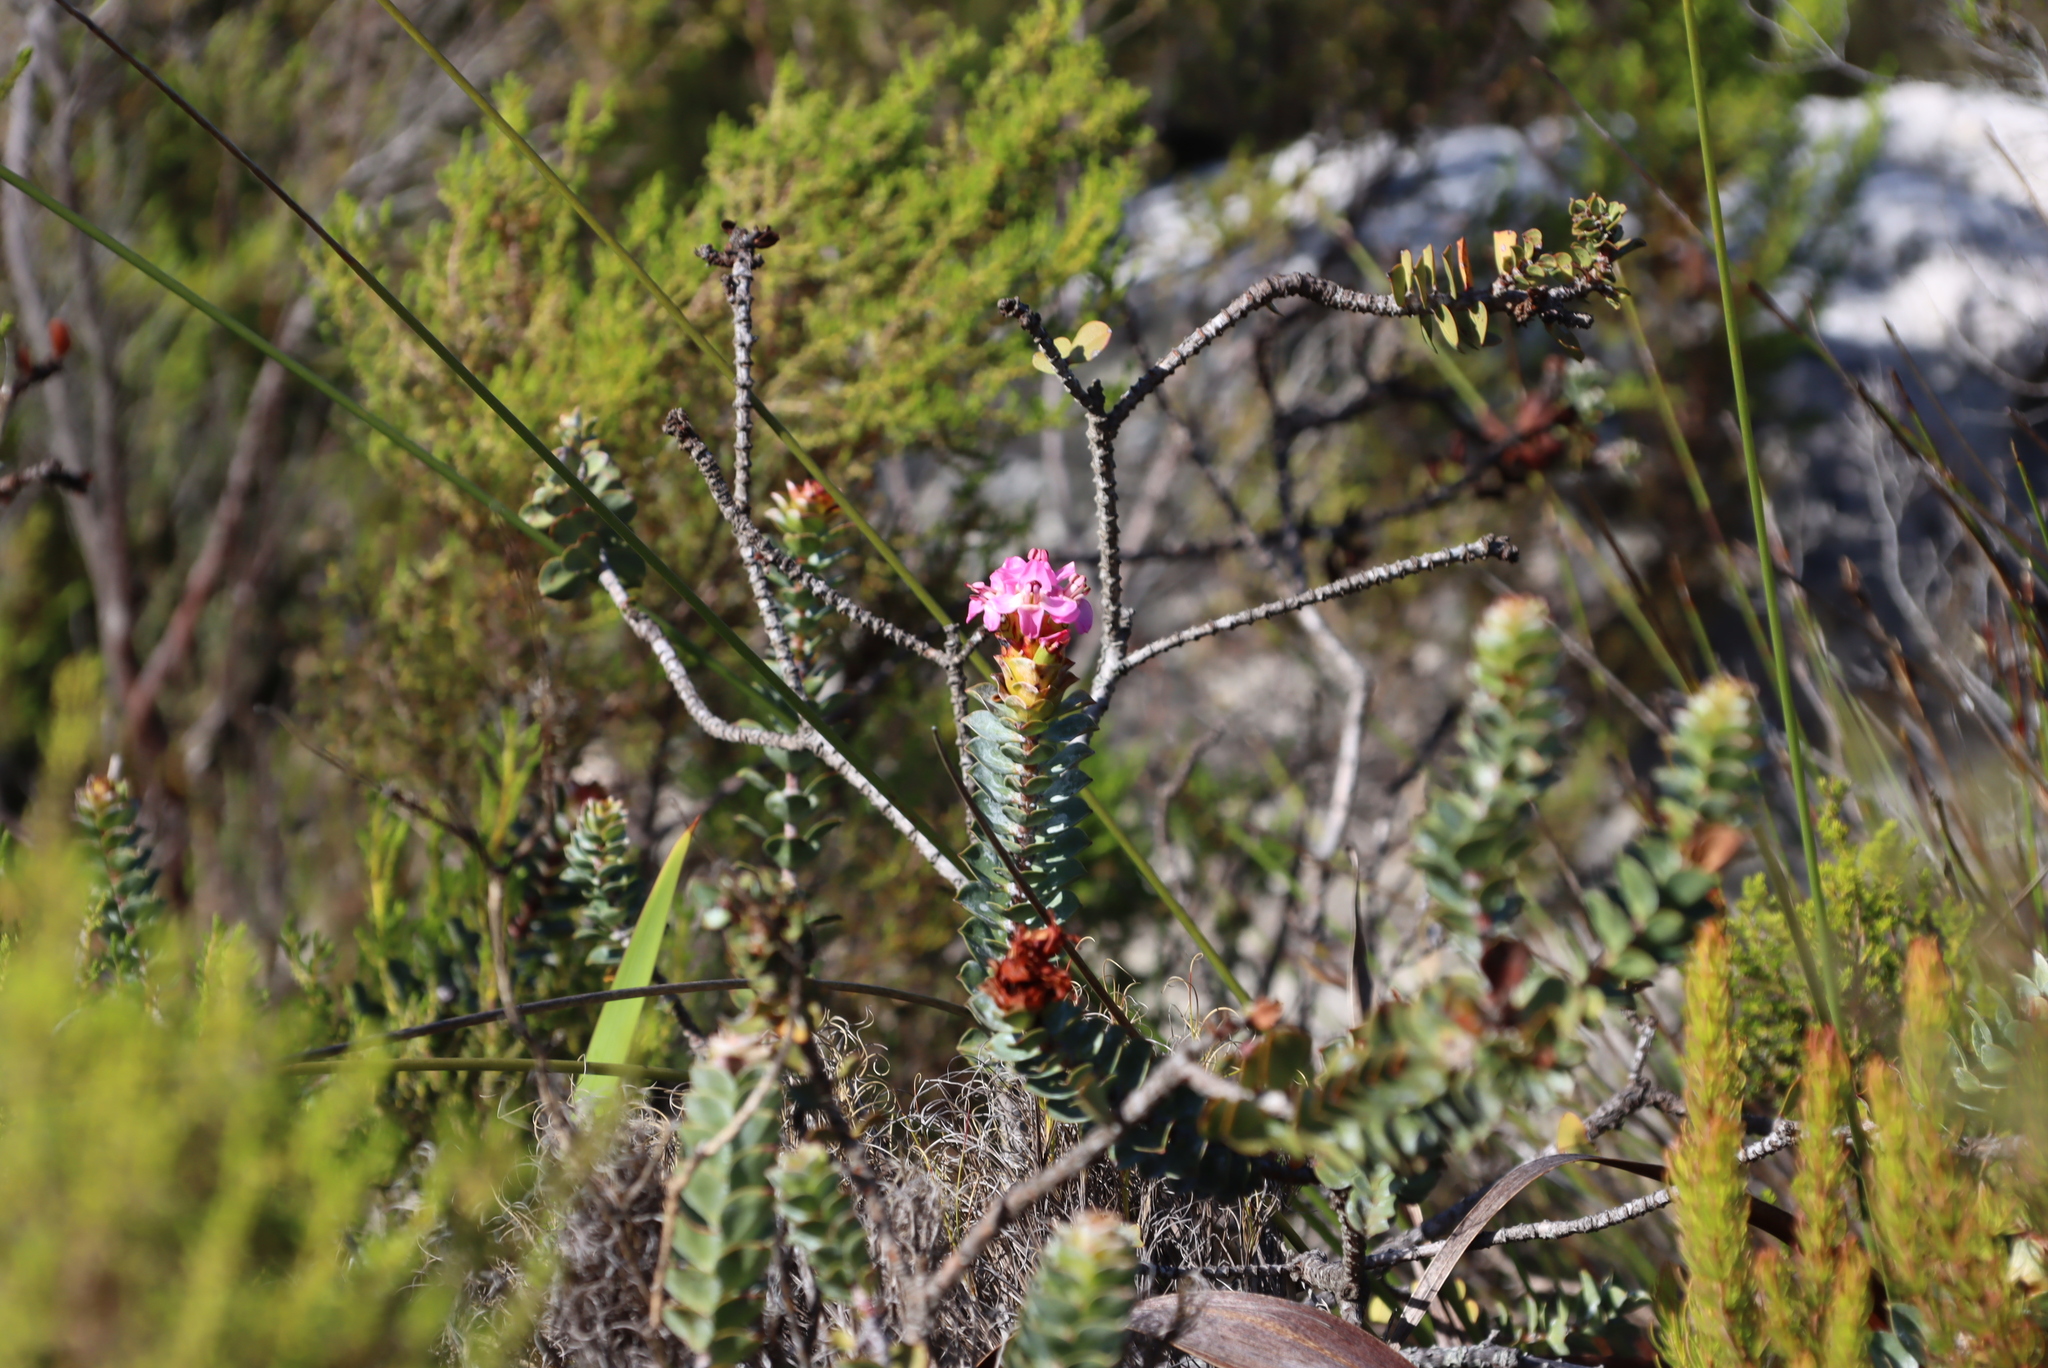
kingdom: Plantae
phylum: Tracheophyta
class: Magnoliopsida
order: Myrtales
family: Penaeaceae
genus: Saltera
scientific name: Saltera sarcocolla
